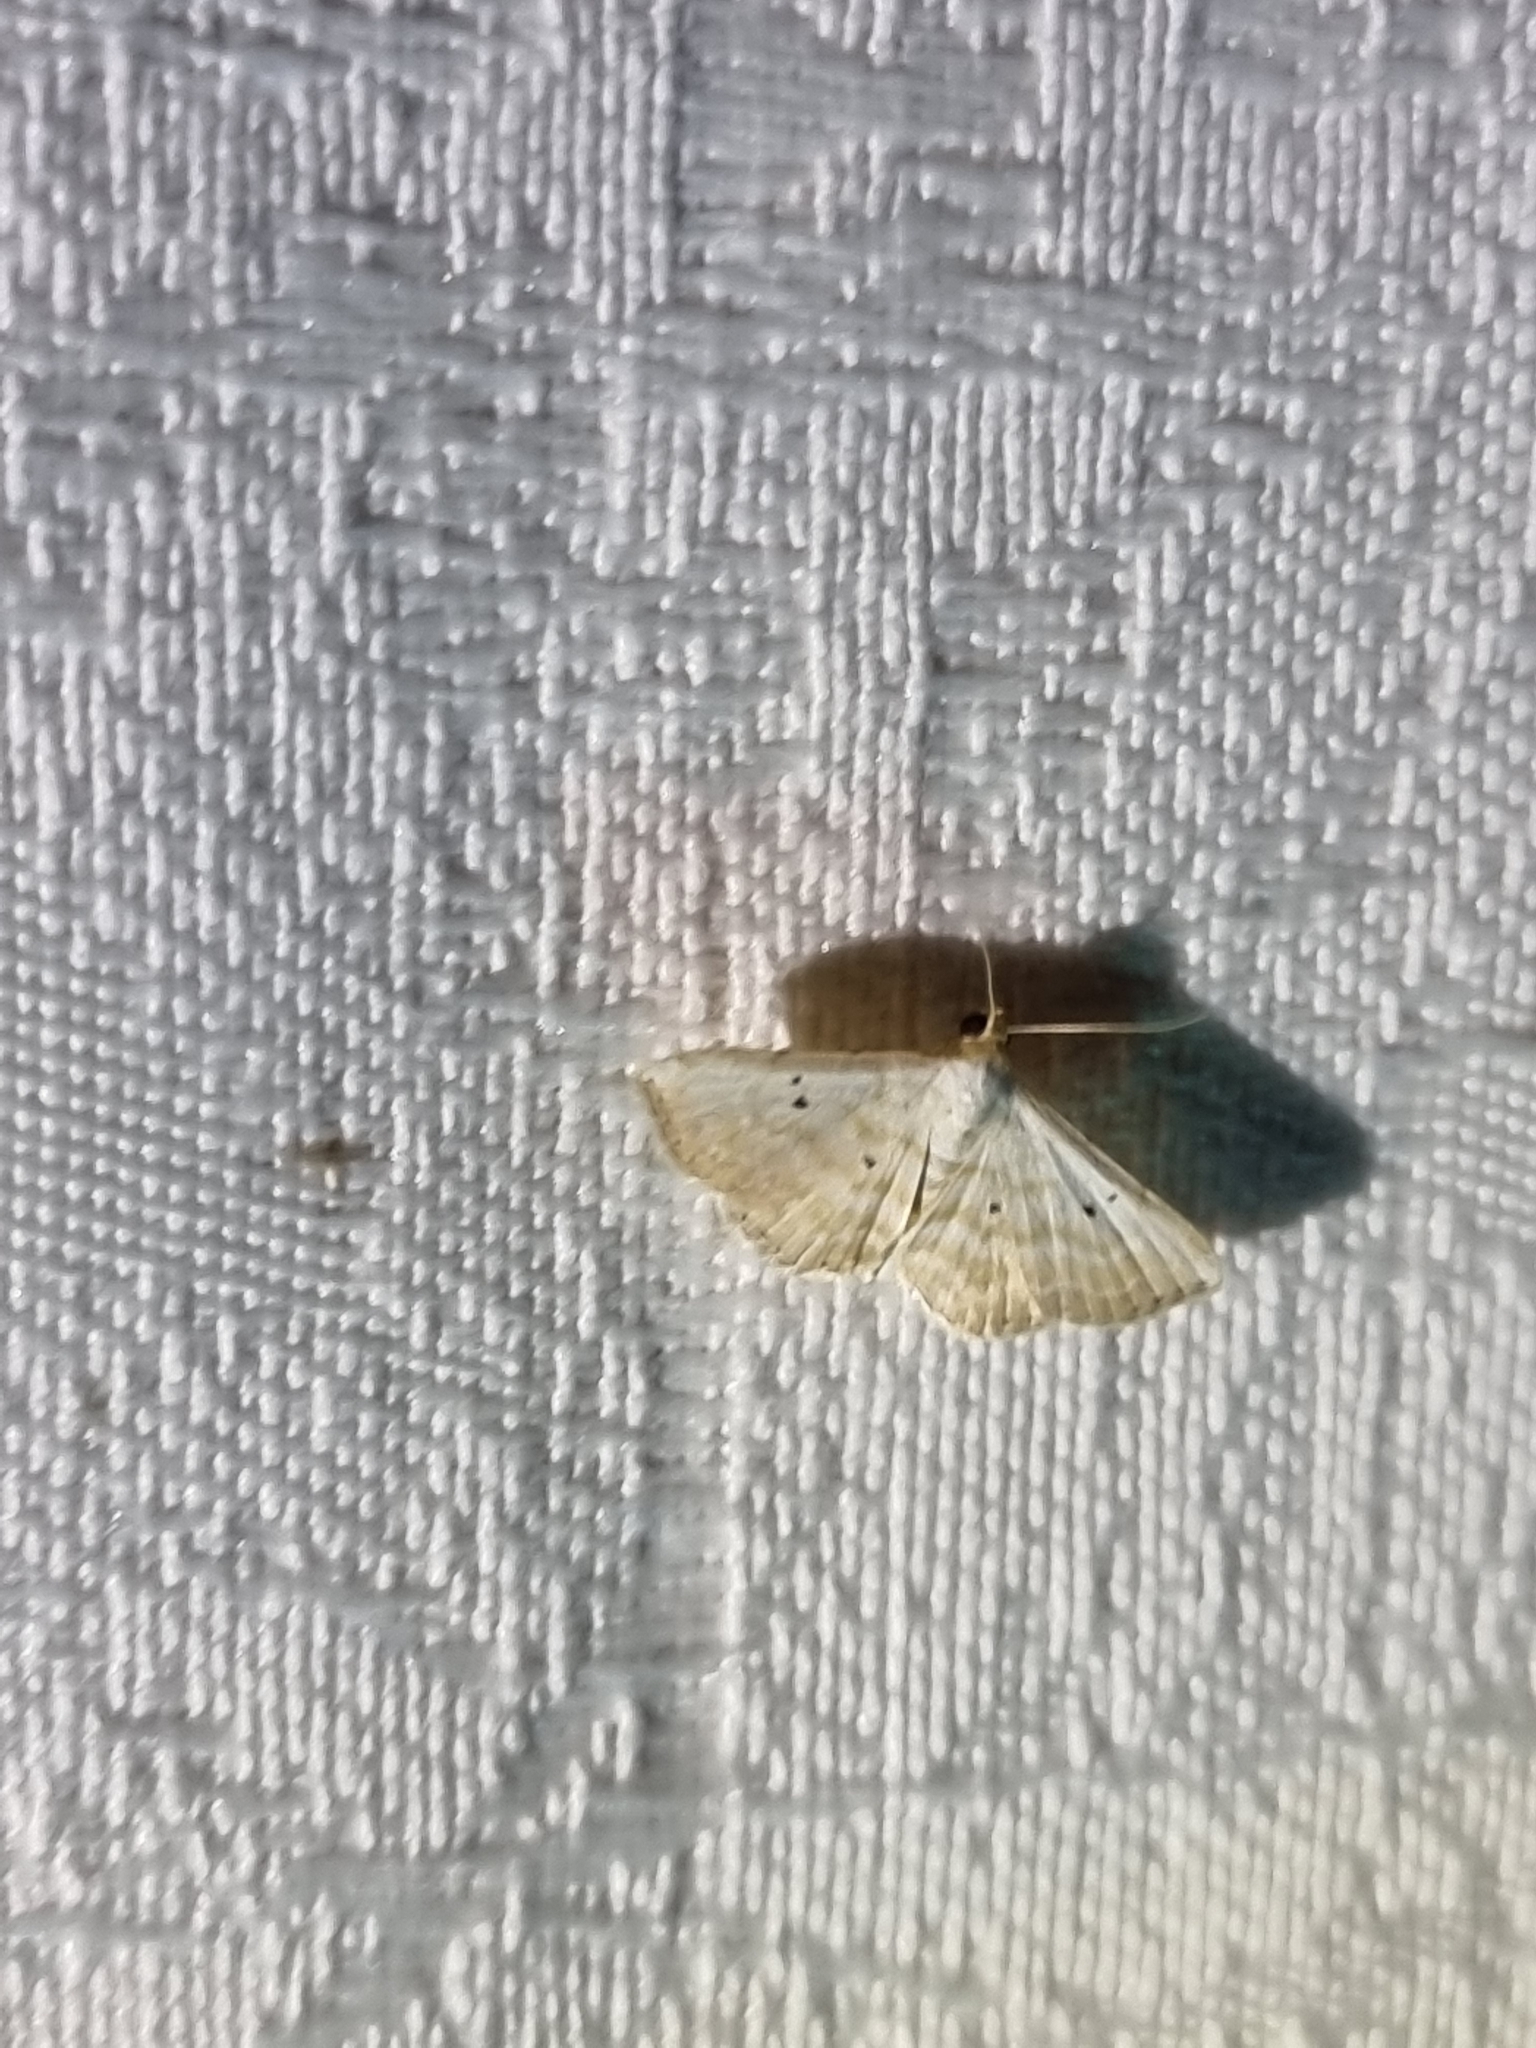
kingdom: Animalia
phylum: Arthropoda
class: Insecta
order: Lepidoptera
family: Noctuidae
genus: Oruza
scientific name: Oruza cariosa
